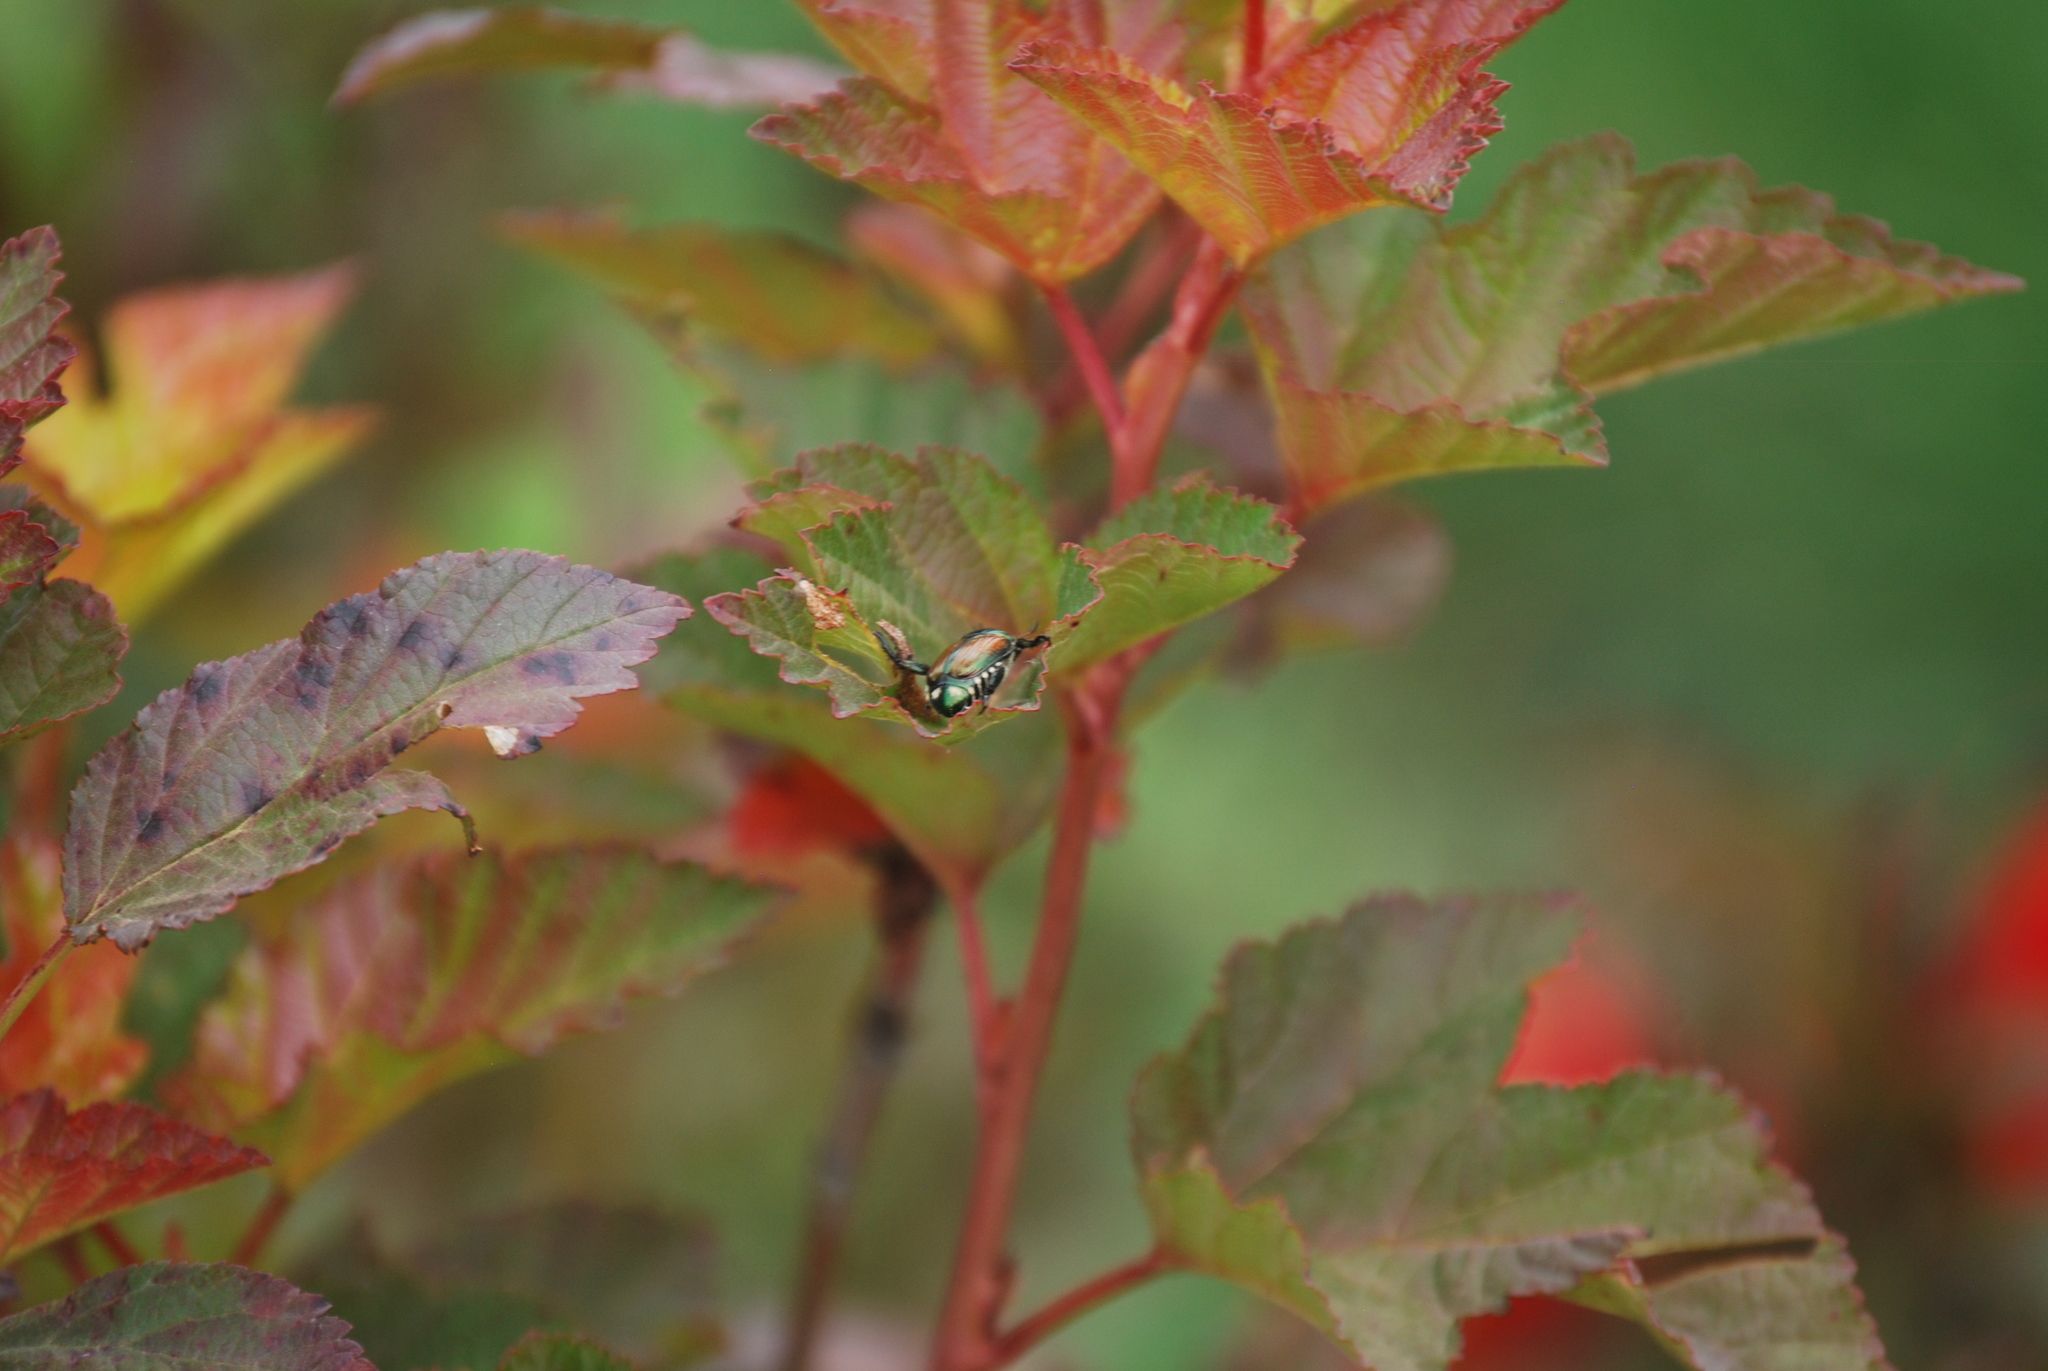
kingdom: Animalia
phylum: Arthropoda
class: Insecta
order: Coleoptera
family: Scarabaeidae
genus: Popillia
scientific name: Popillia japonica
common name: Japanese beetle
